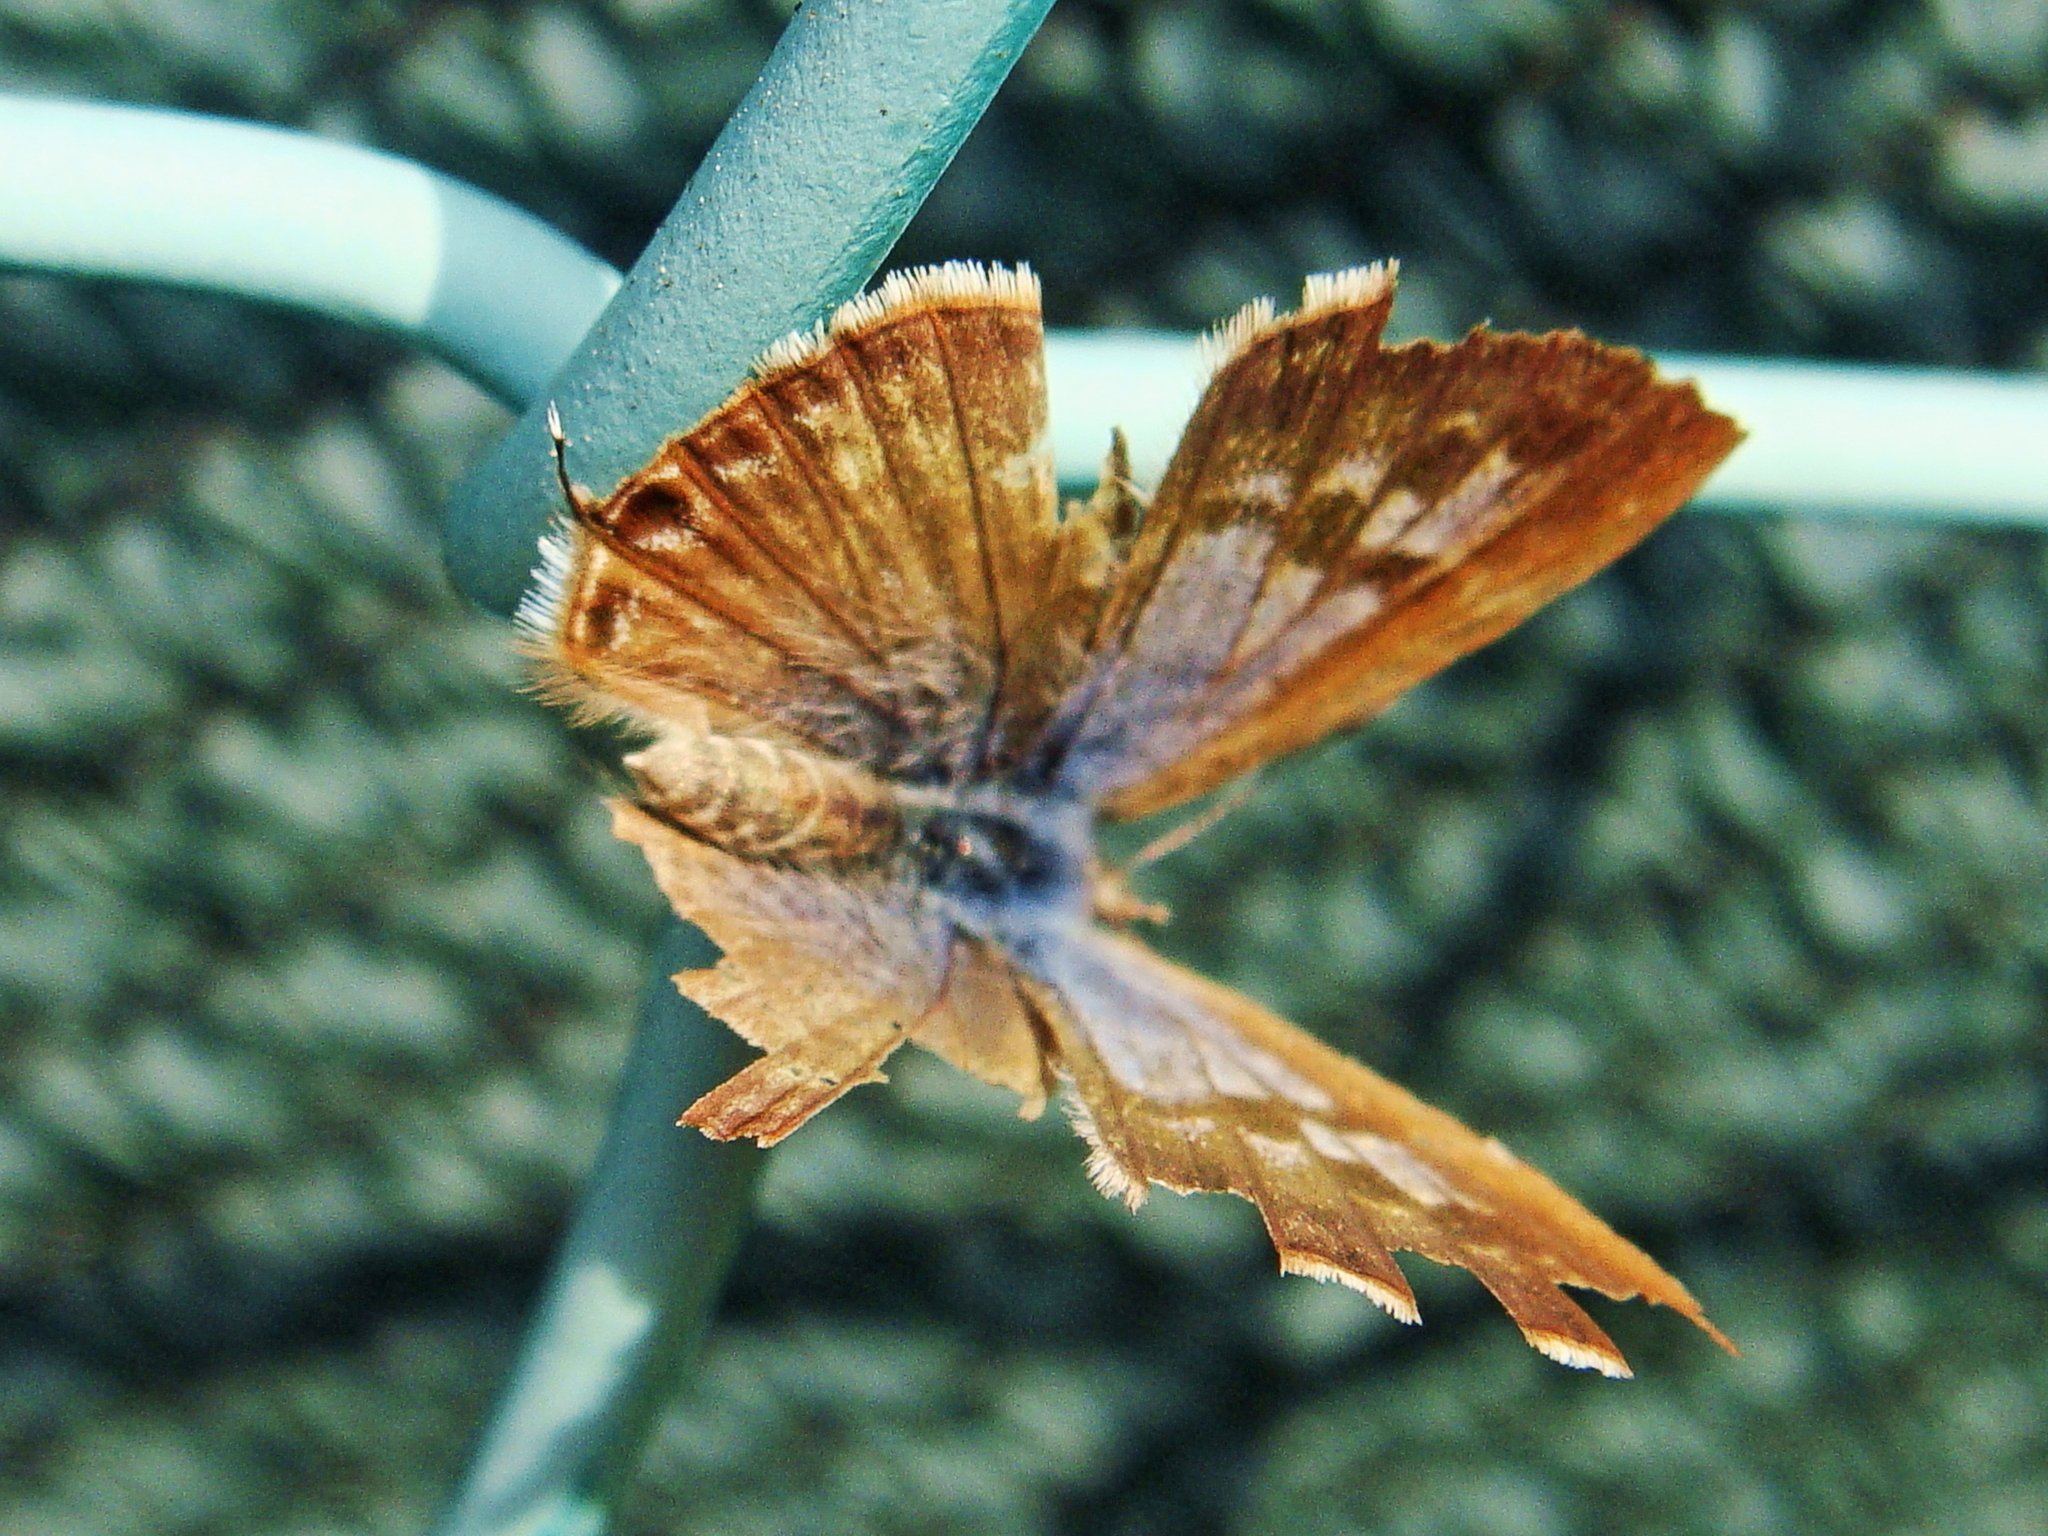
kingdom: Animalia
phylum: Arthropoda
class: Insecta
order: Lepidoptera
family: Lycaenidae
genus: Leptotes
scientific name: Leptotes pirithous
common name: Lang's short-tailed blue
